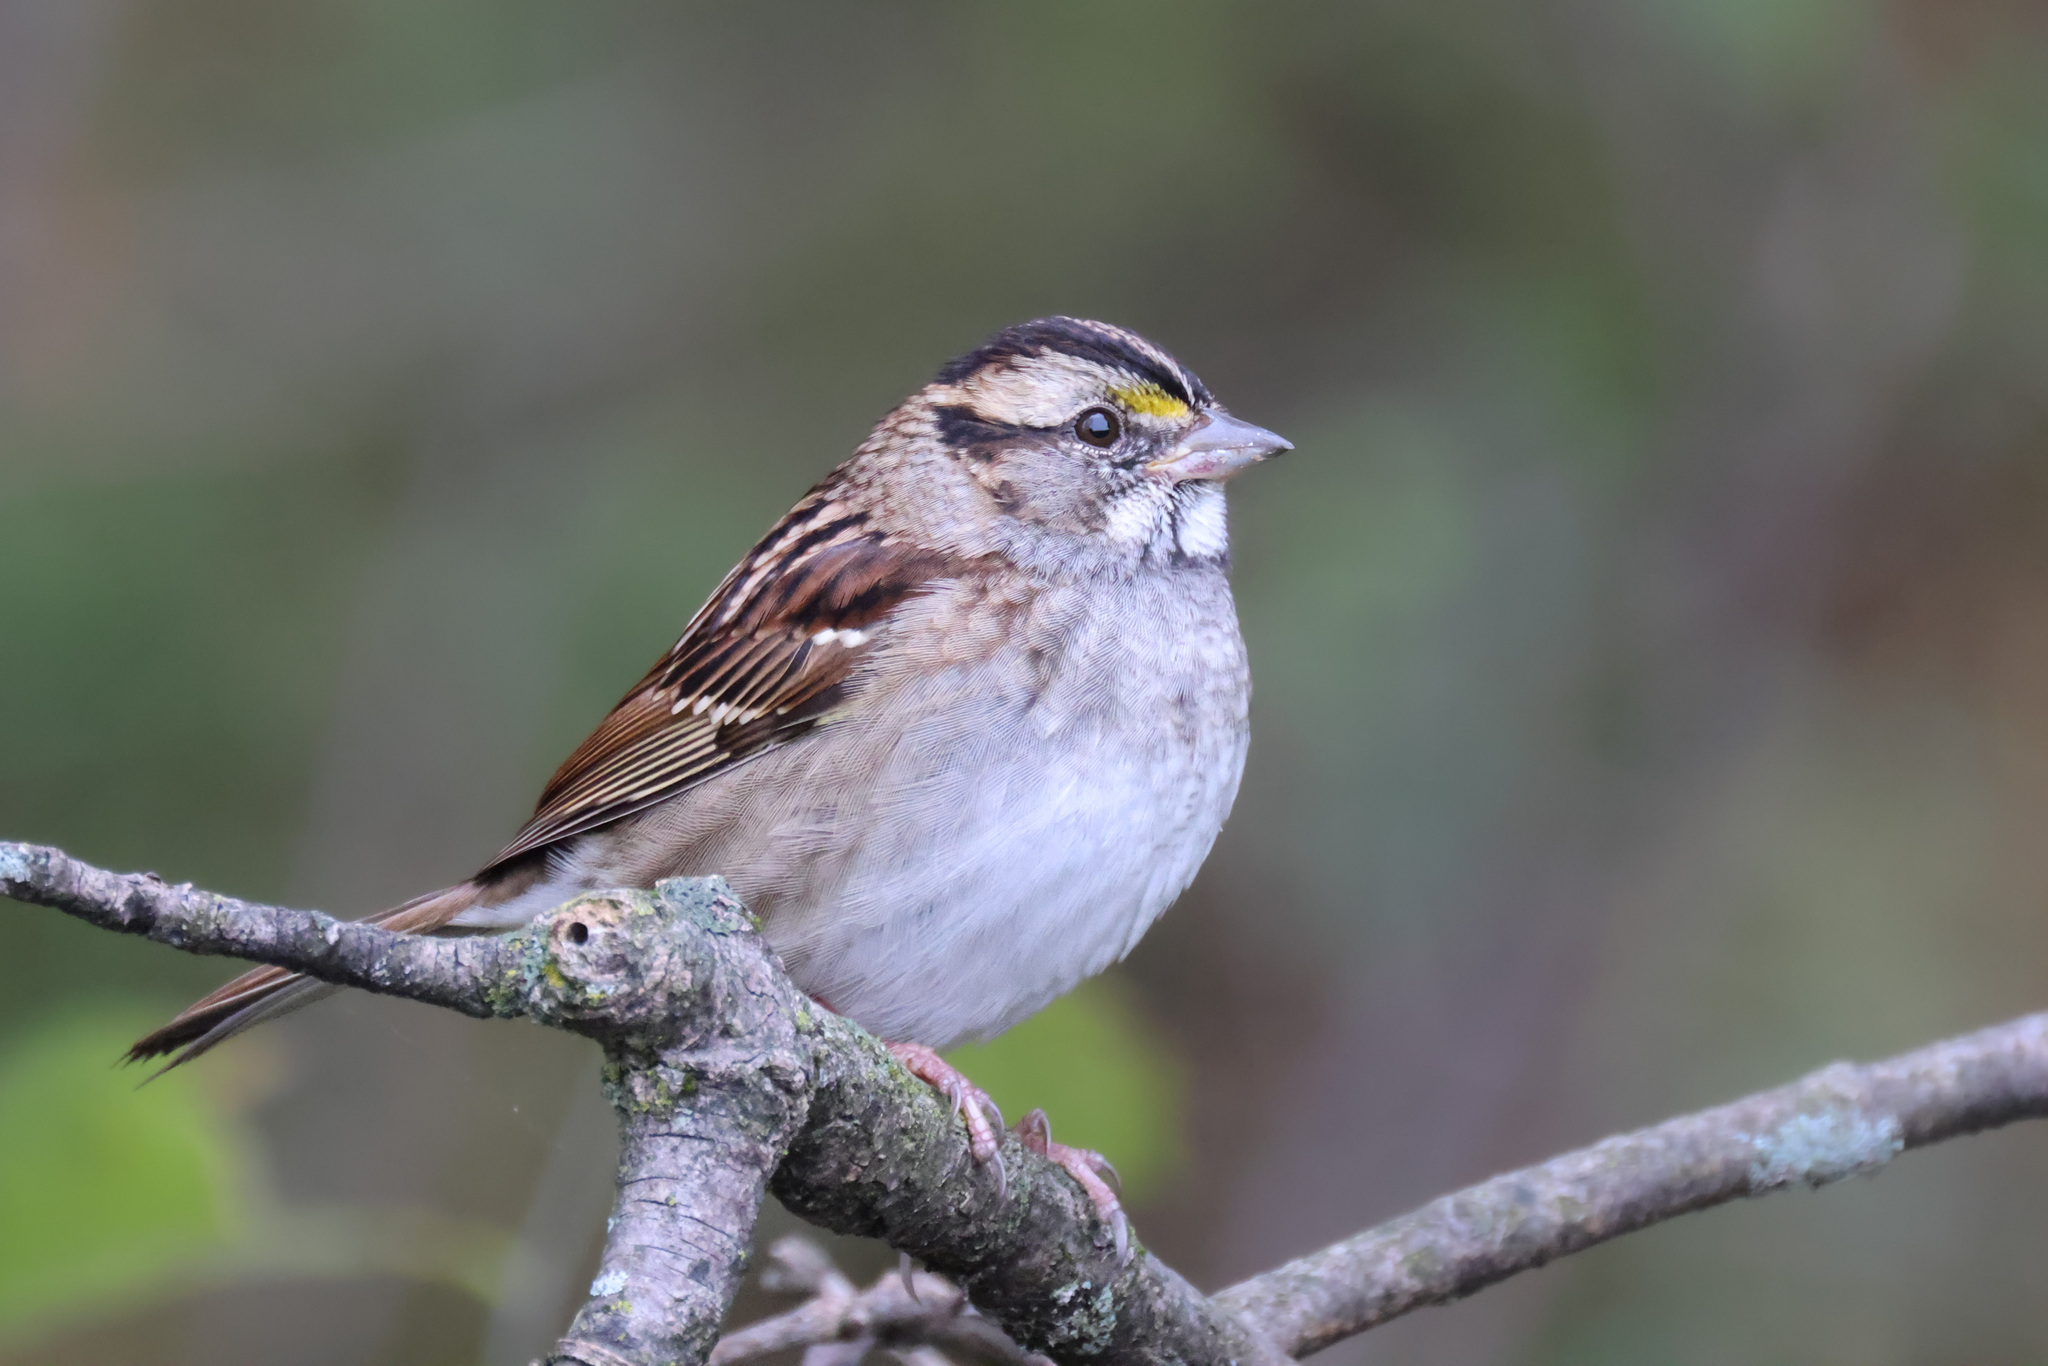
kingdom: Animalia
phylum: Chordata
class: Aves
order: Passeriformes
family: Passerellidae
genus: Zonotrichia
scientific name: Zonotrichia albicollis
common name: White-throated sparrow
